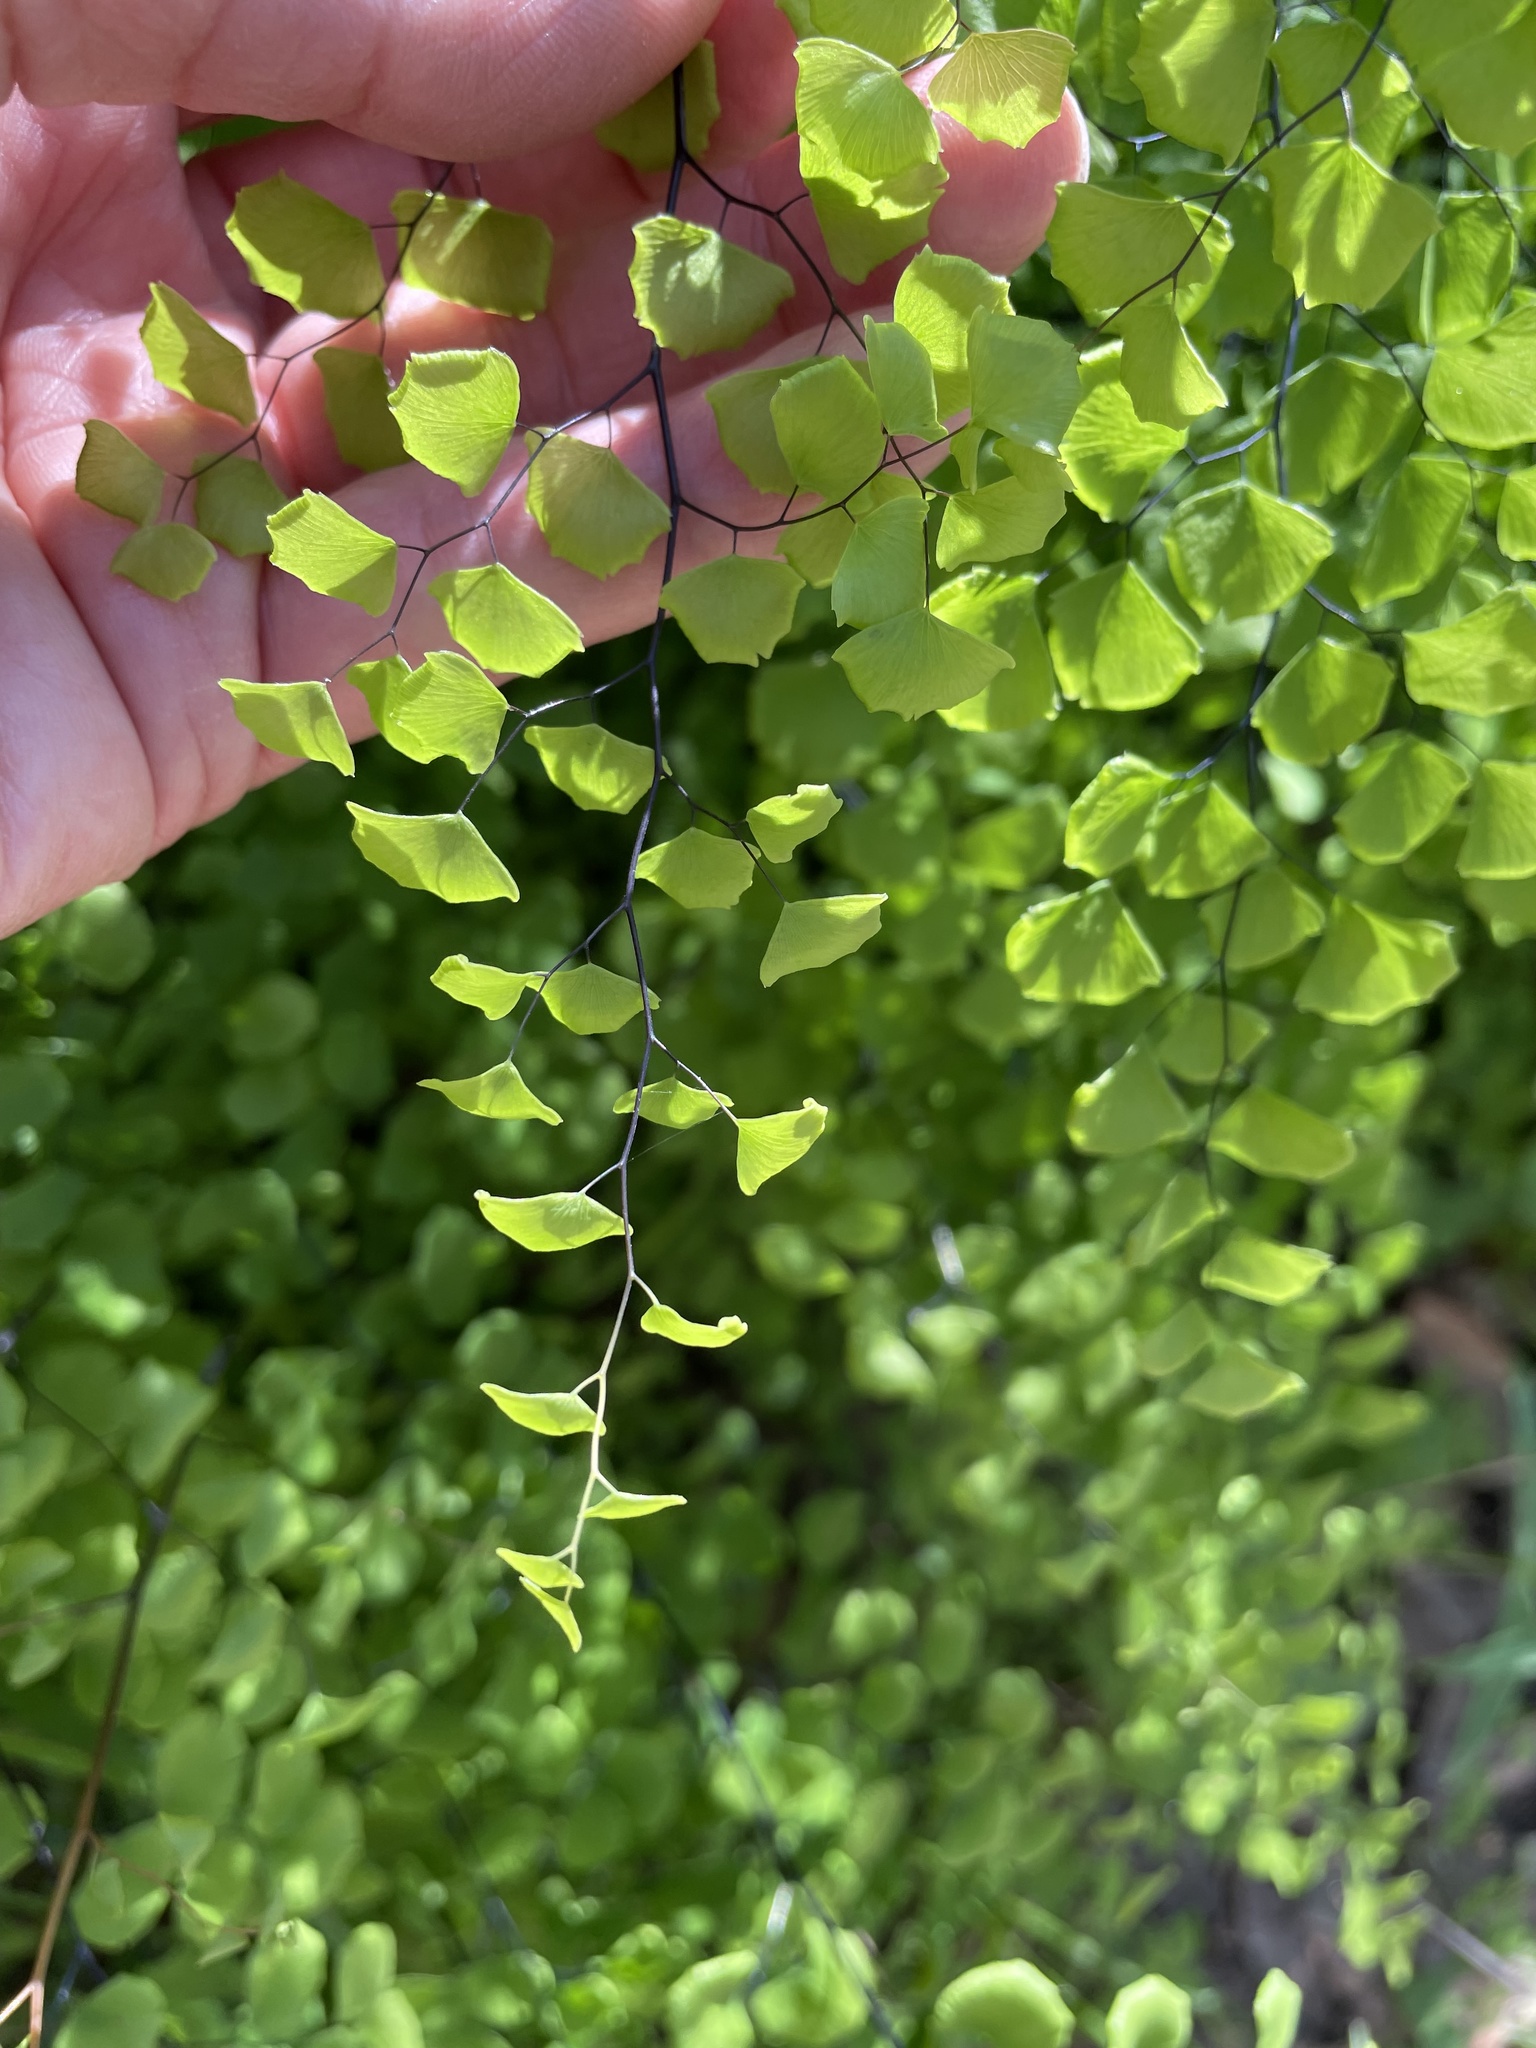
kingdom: Plantae
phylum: Tracheophyta
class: Polypodiopsida
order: Polypodiales
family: Pteridaceae
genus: Adiantum
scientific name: Adiantum jordanii
